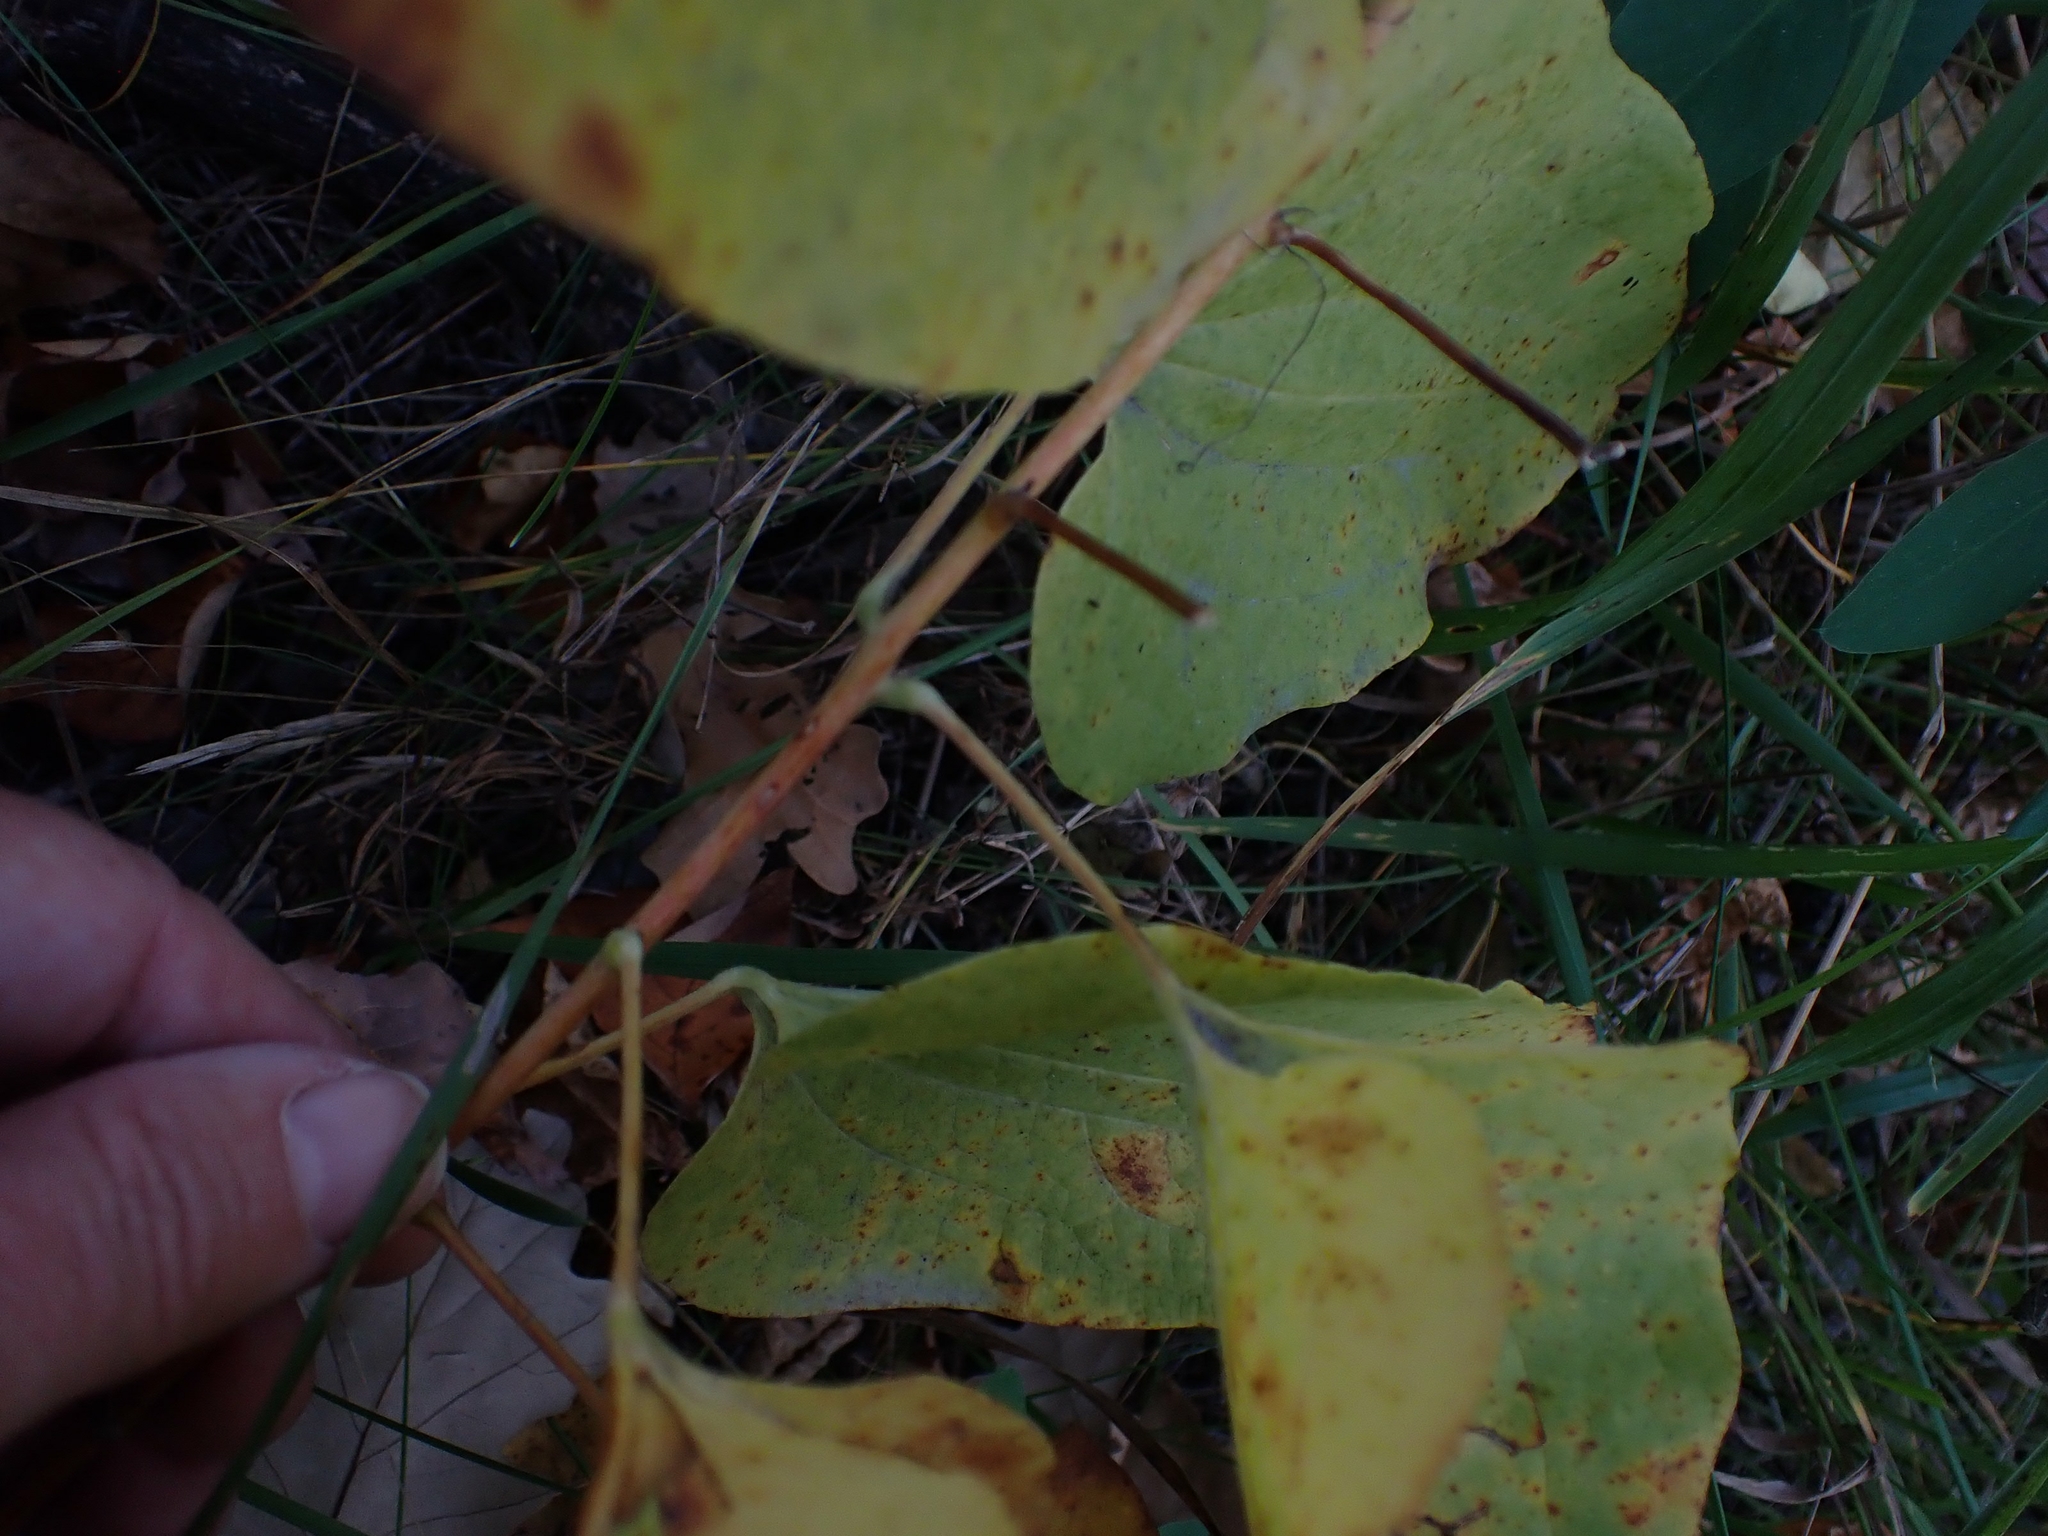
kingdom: Plantae
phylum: Tracheophyta
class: Liliopsida
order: Liliales
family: Smilacaceae
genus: Smilax
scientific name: Smilax lasioneura
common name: Blue ridge carrionflower
